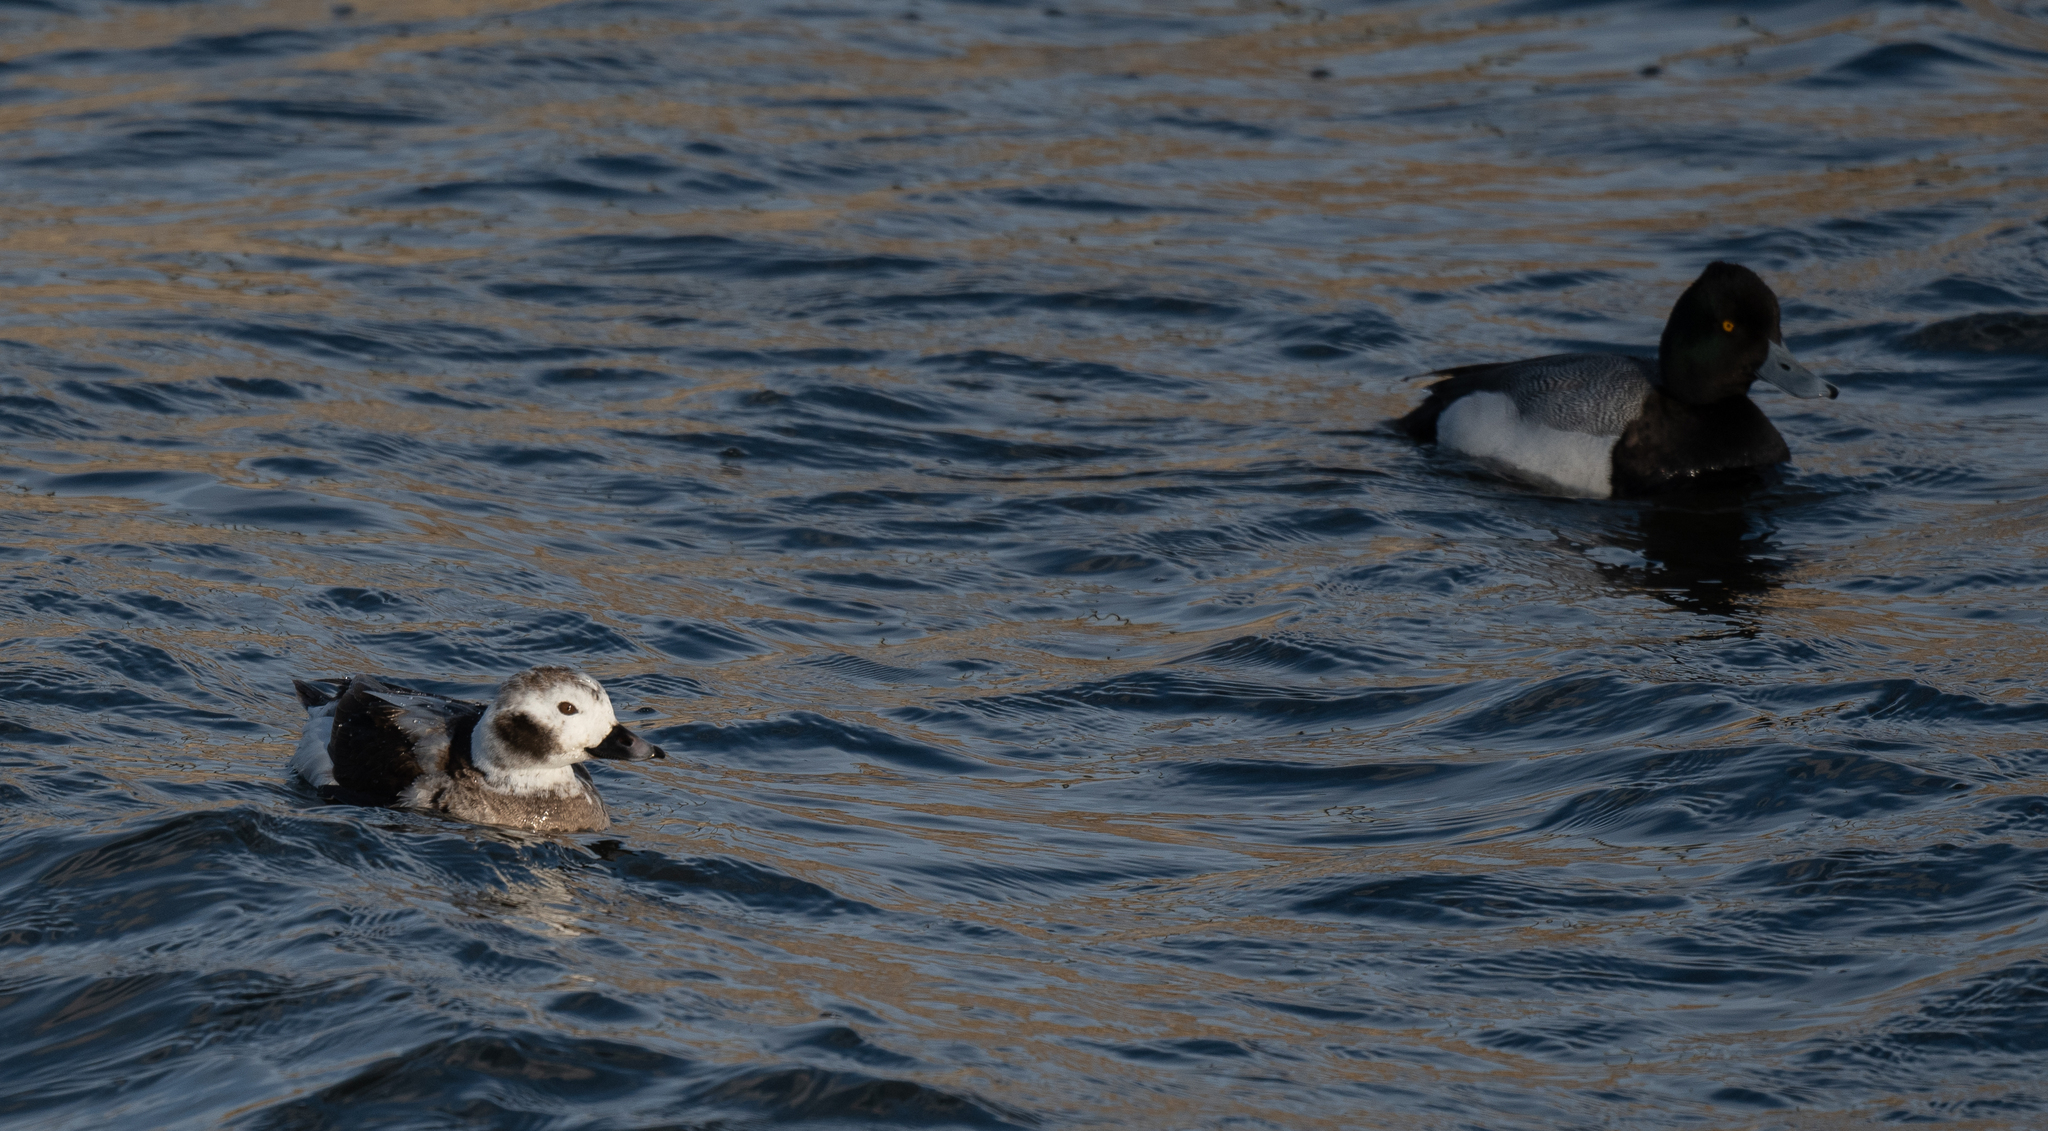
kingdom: Animalia
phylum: Chordata
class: Aves
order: Anseriformes
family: Anatidae
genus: Clangula
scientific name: Clangula hyemalis
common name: Long-tailed duck
